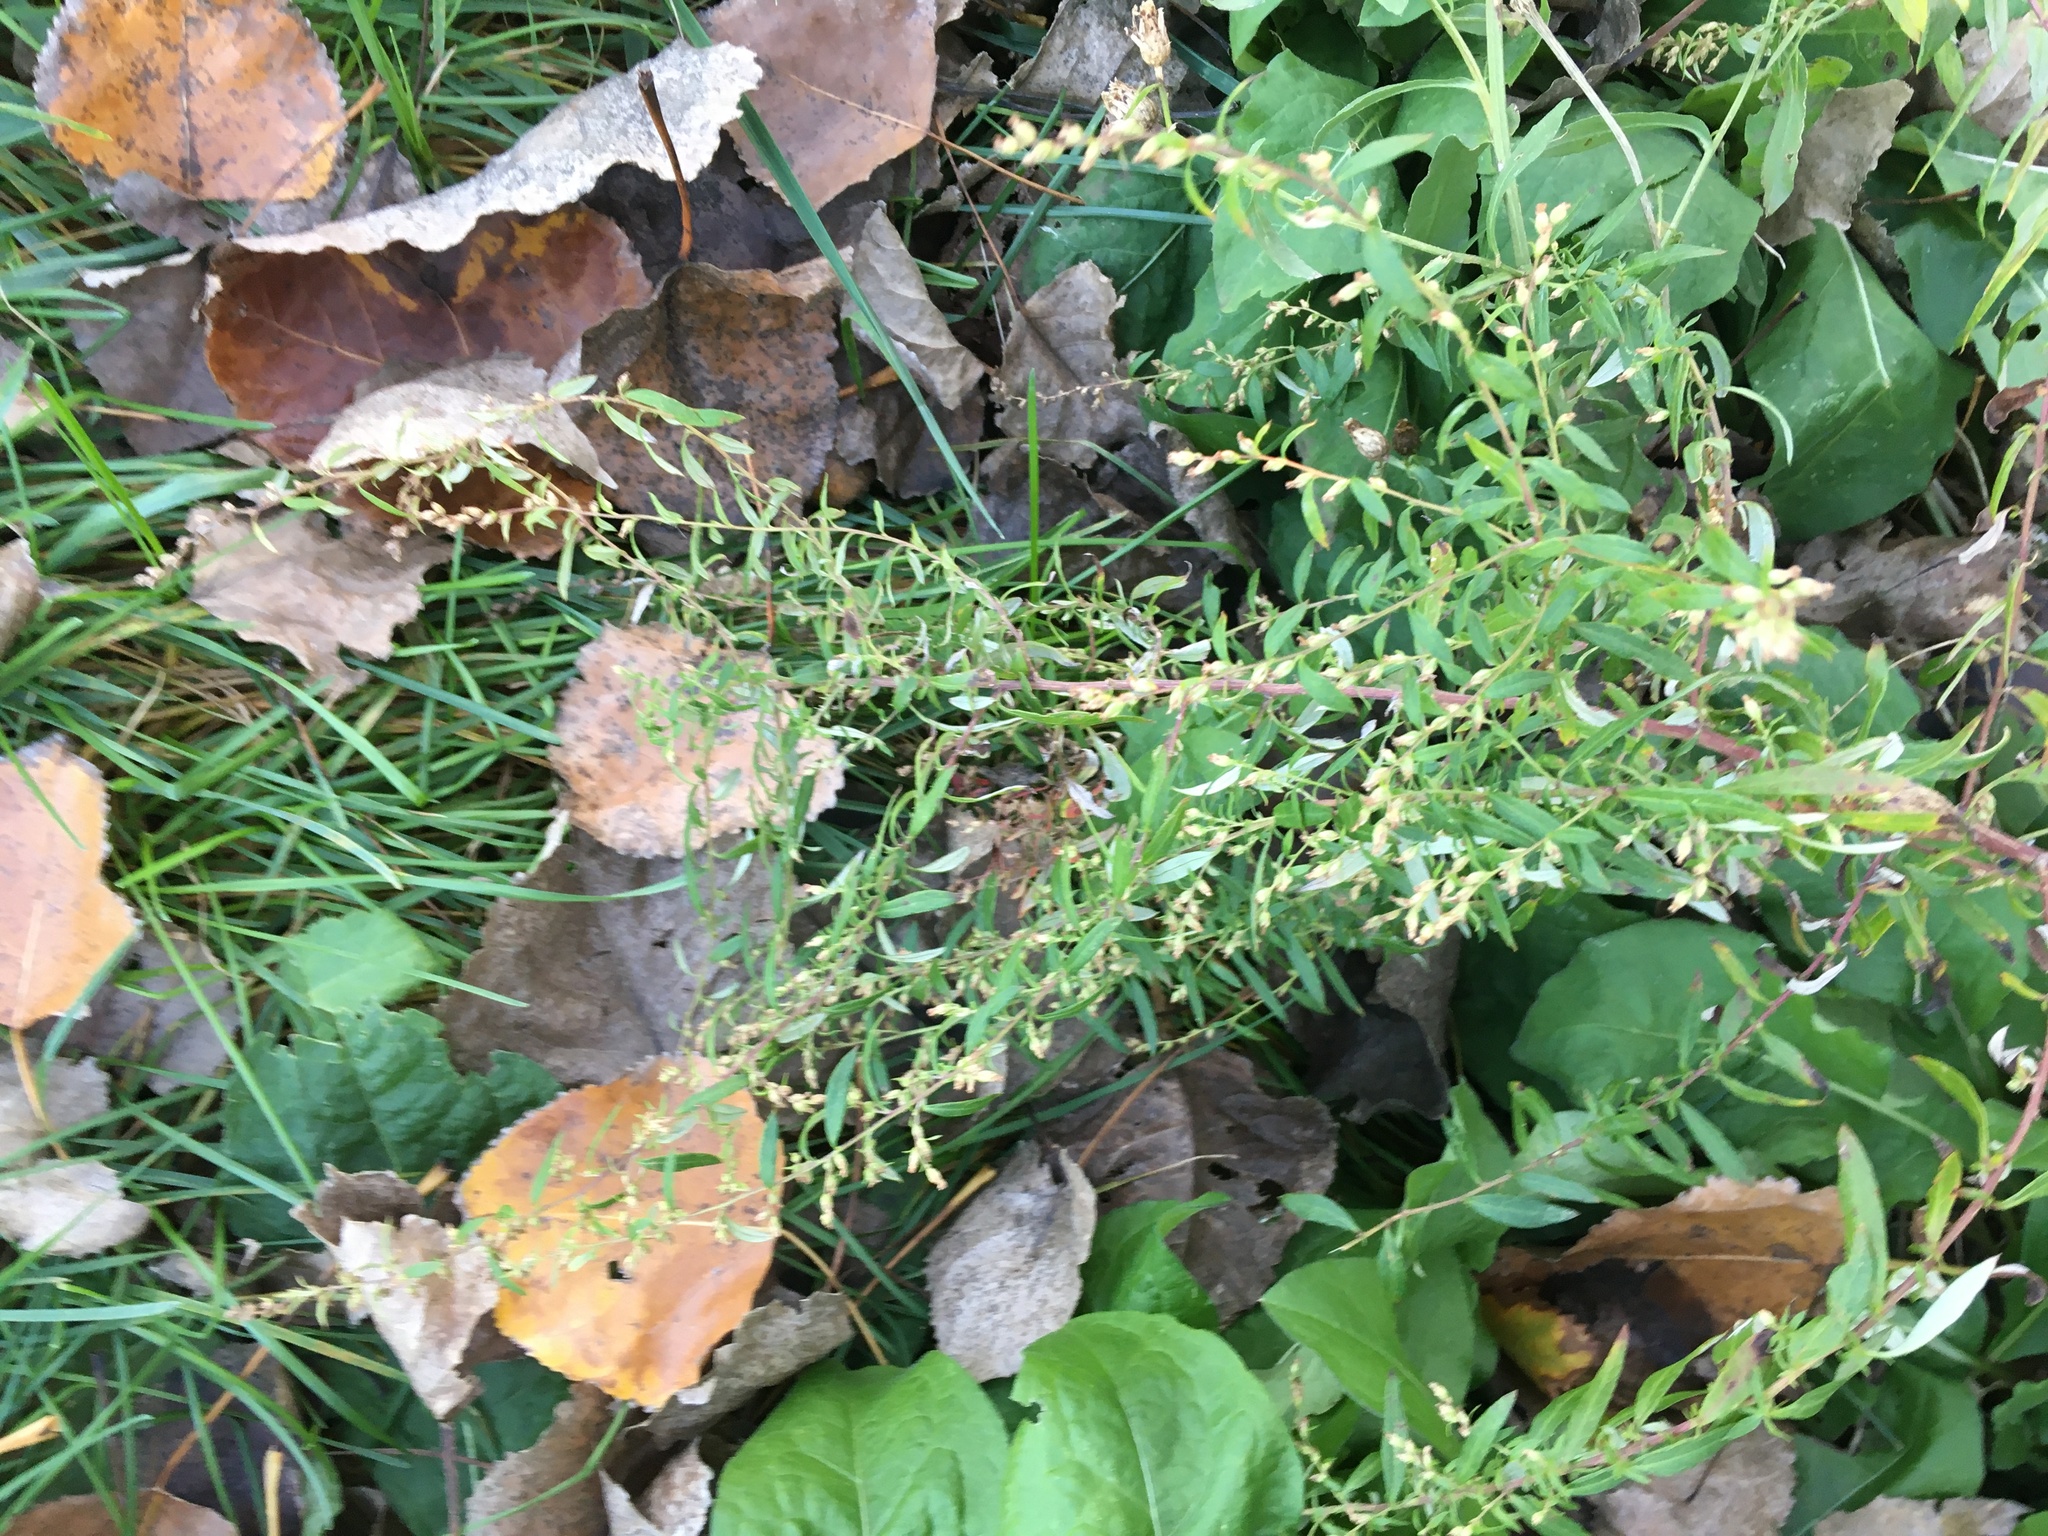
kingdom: Plantae
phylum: Tracheophyta
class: Magnoliopsida
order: Asterales
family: Asteraceae
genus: Artemisia
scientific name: Artemisia vulgaris
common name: Mugwort
